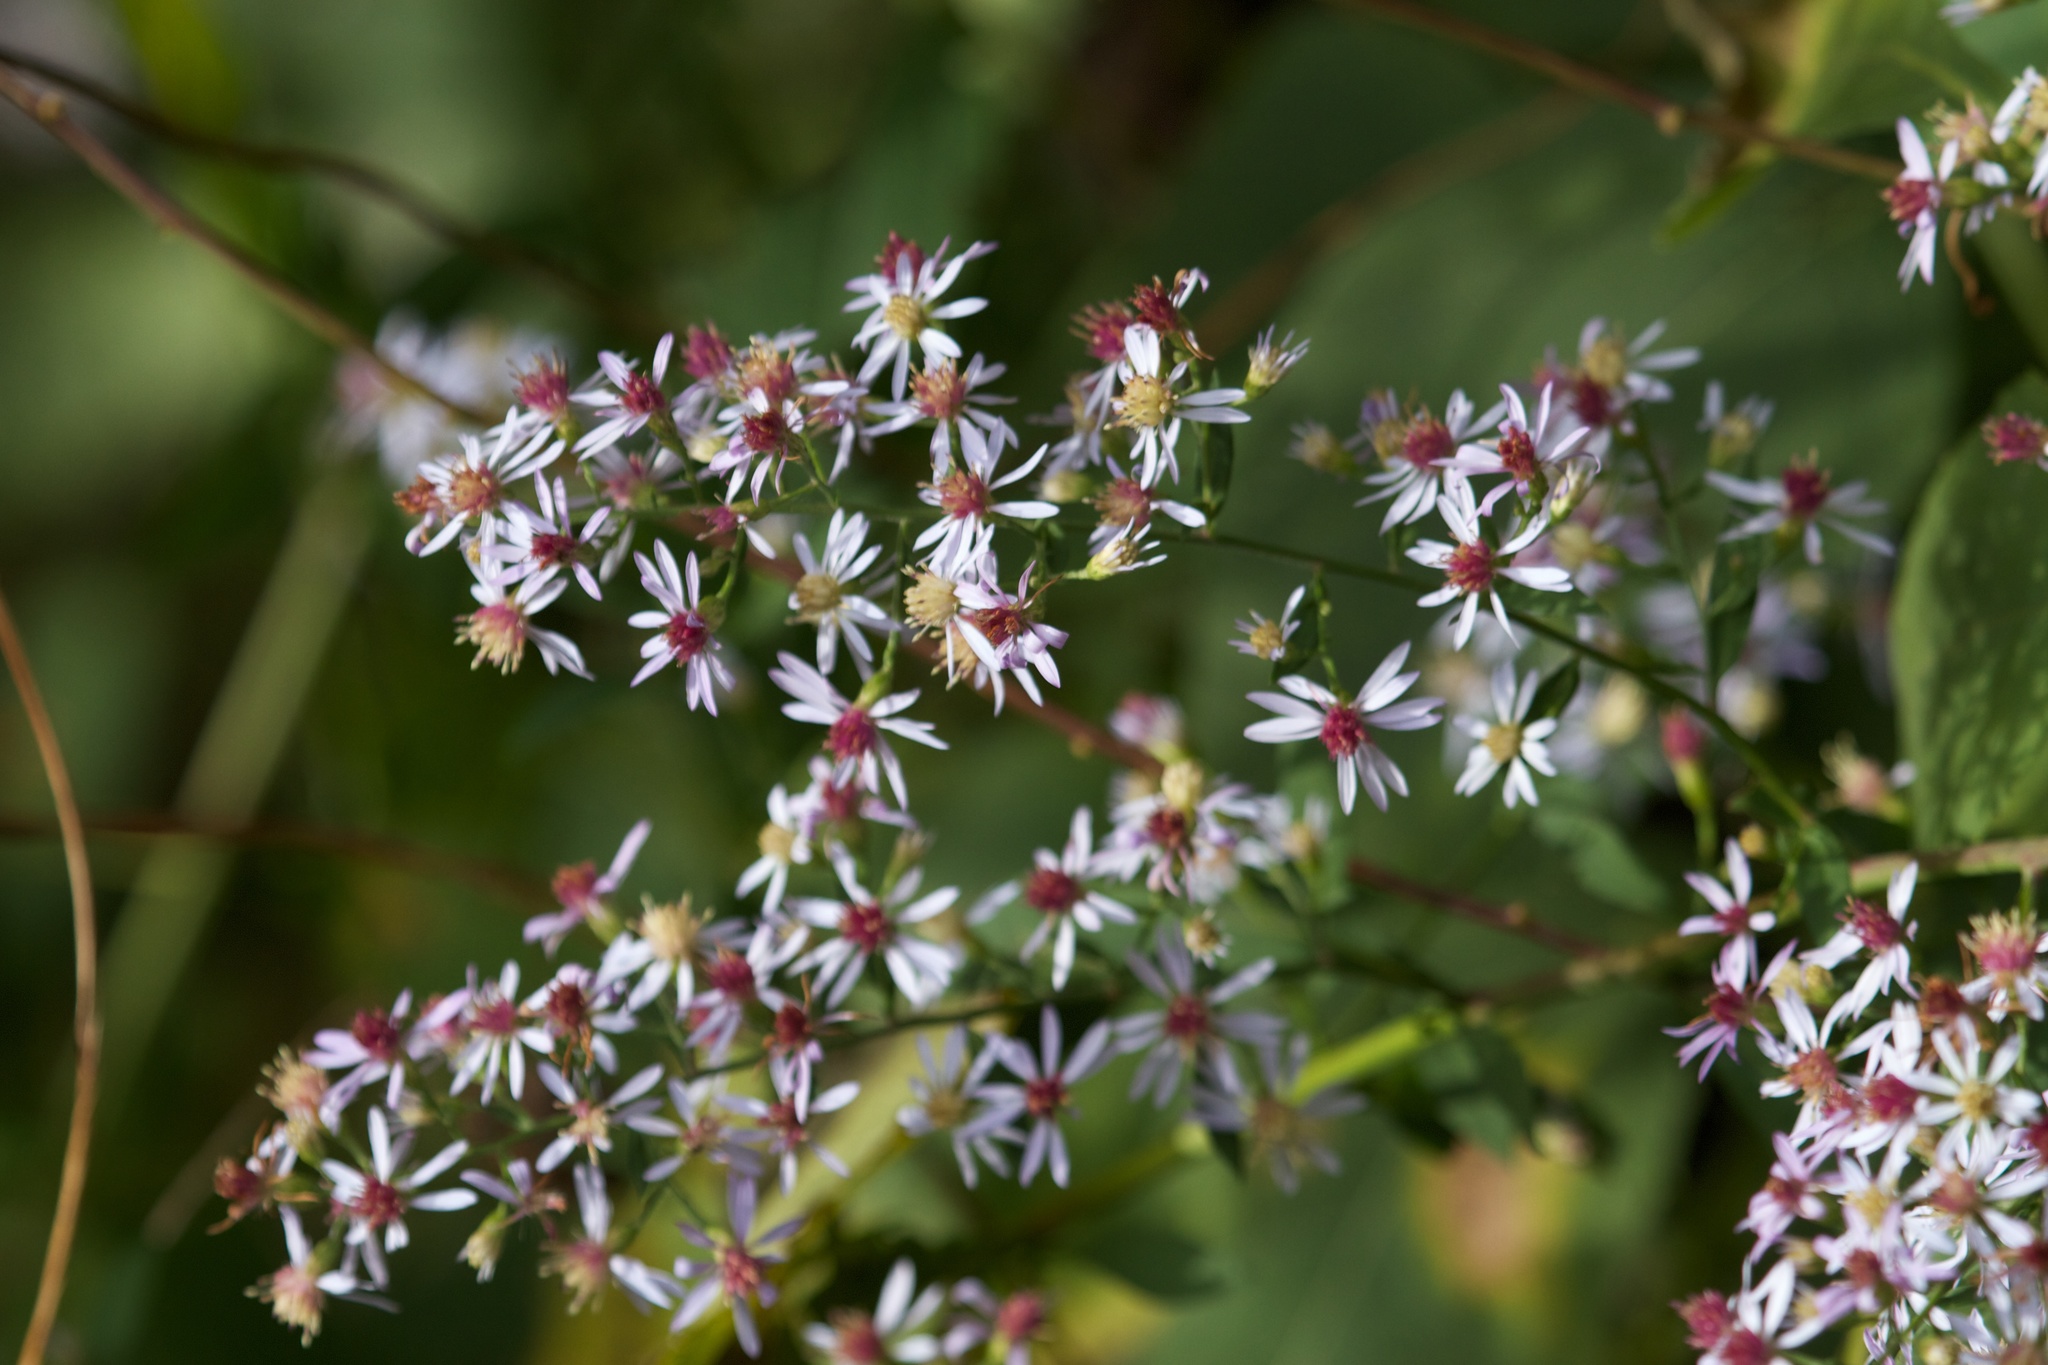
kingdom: Plantae
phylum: Tracheophyta
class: Magnoliopsida
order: Asterales
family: Asteraceae
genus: Eurybia
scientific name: Eurybia divaricata
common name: White wood aster
